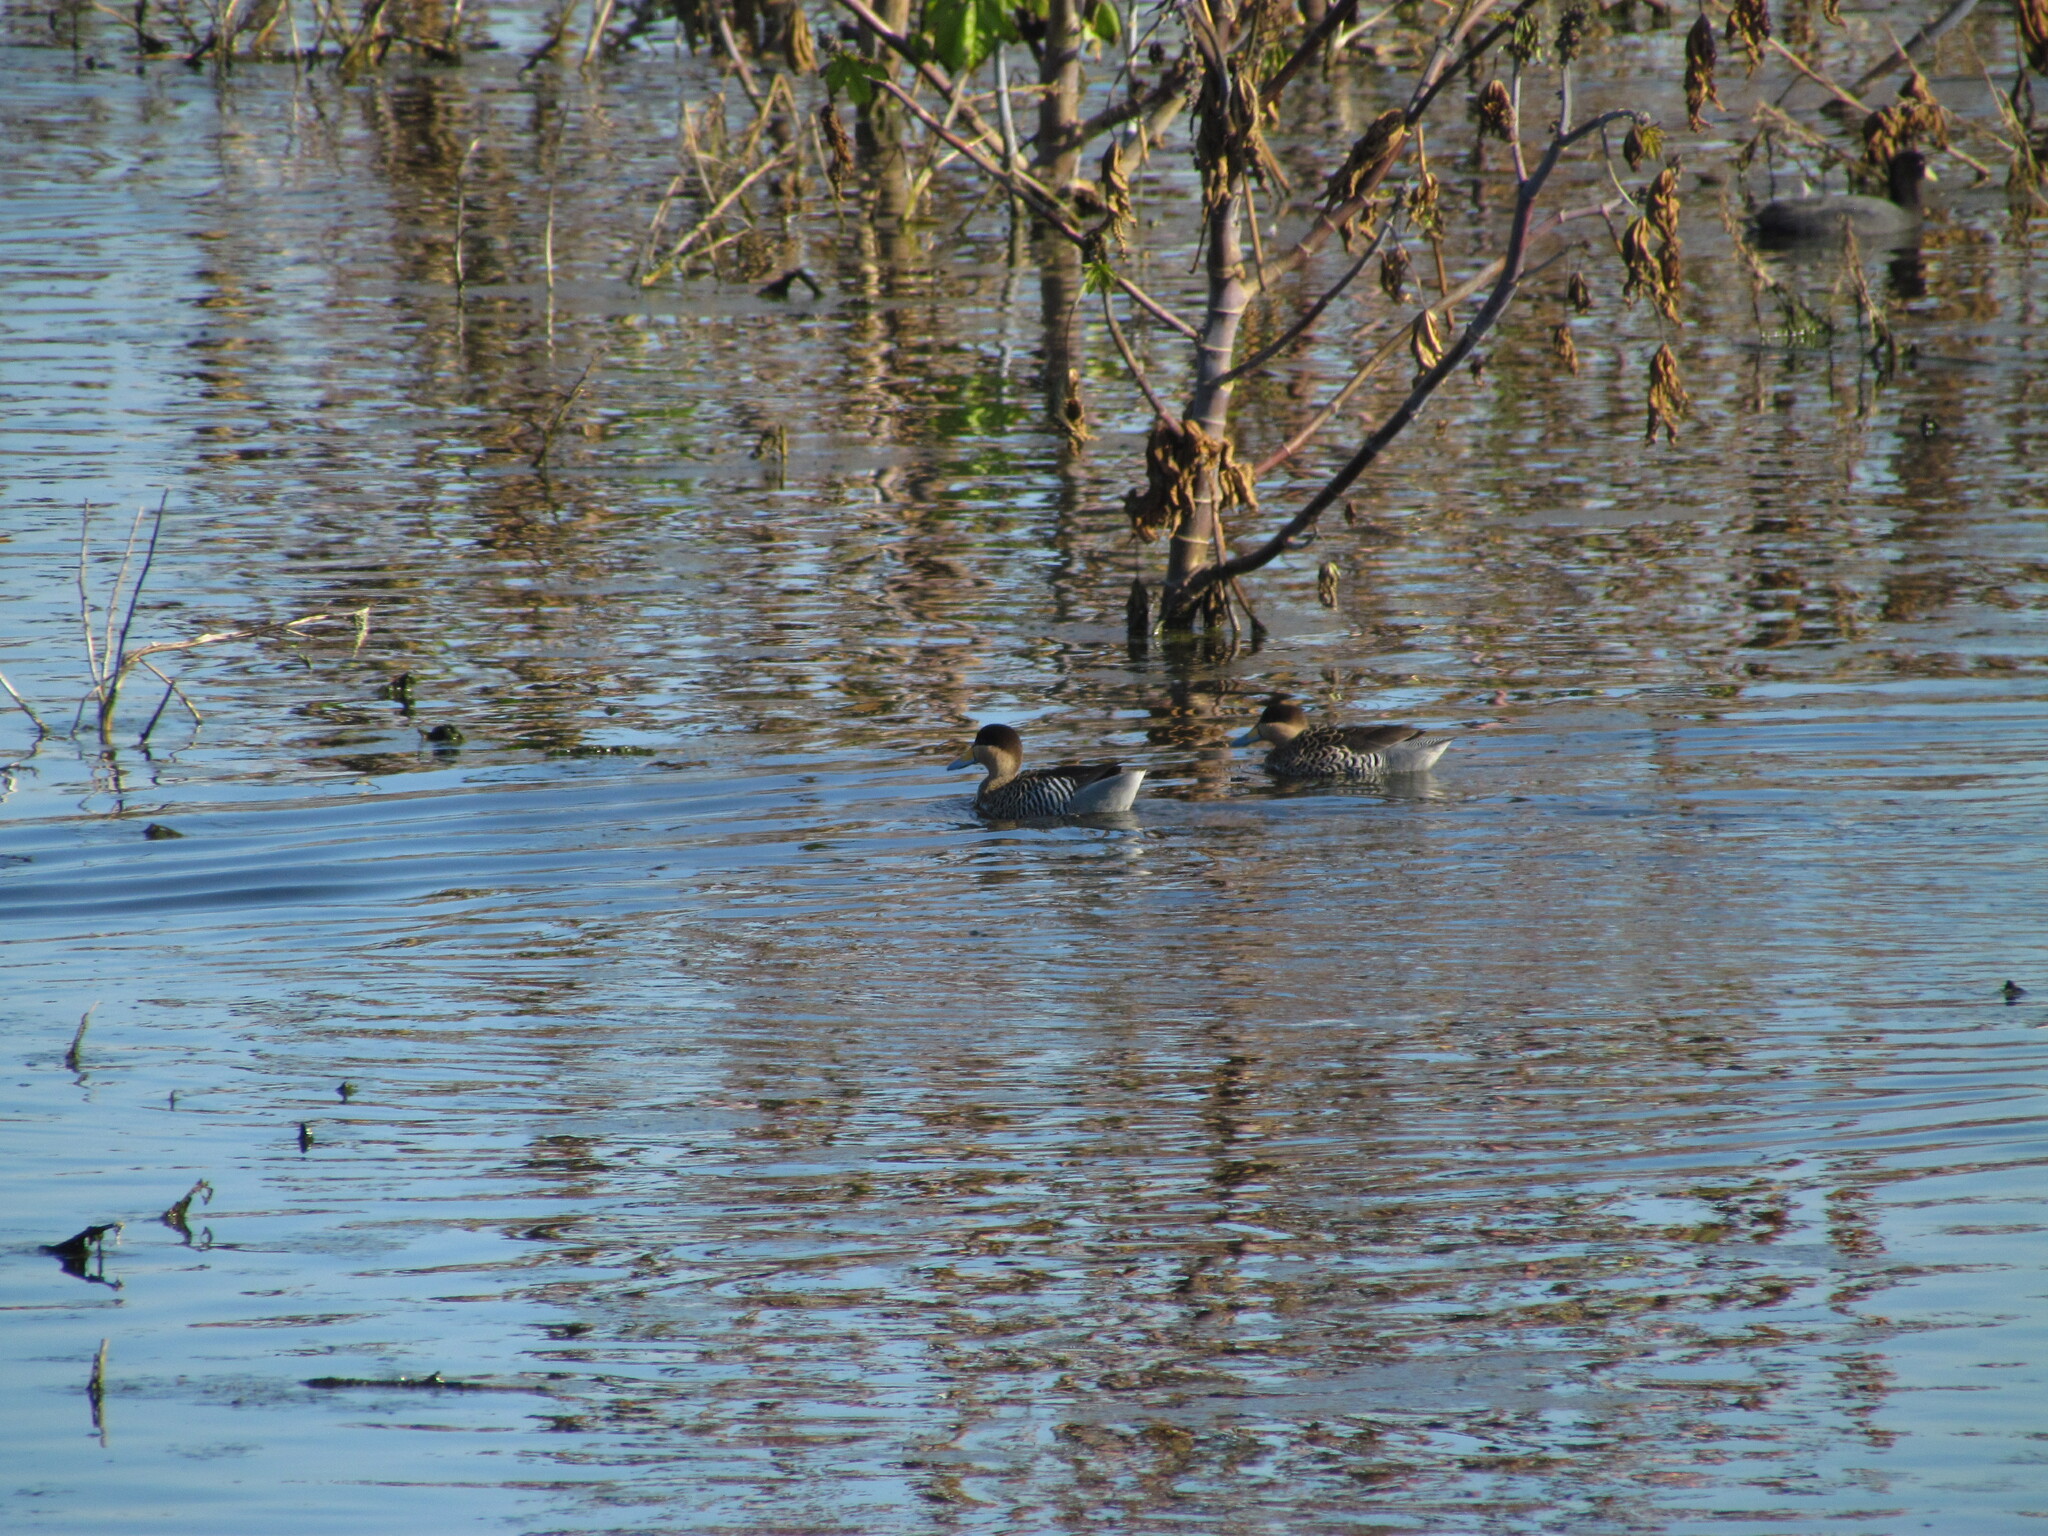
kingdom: Animalia
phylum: Chordata
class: Aves
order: Anseriformes
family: Anatidae
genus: Spatula
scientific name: Spatula versicolor
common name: Silver teal
